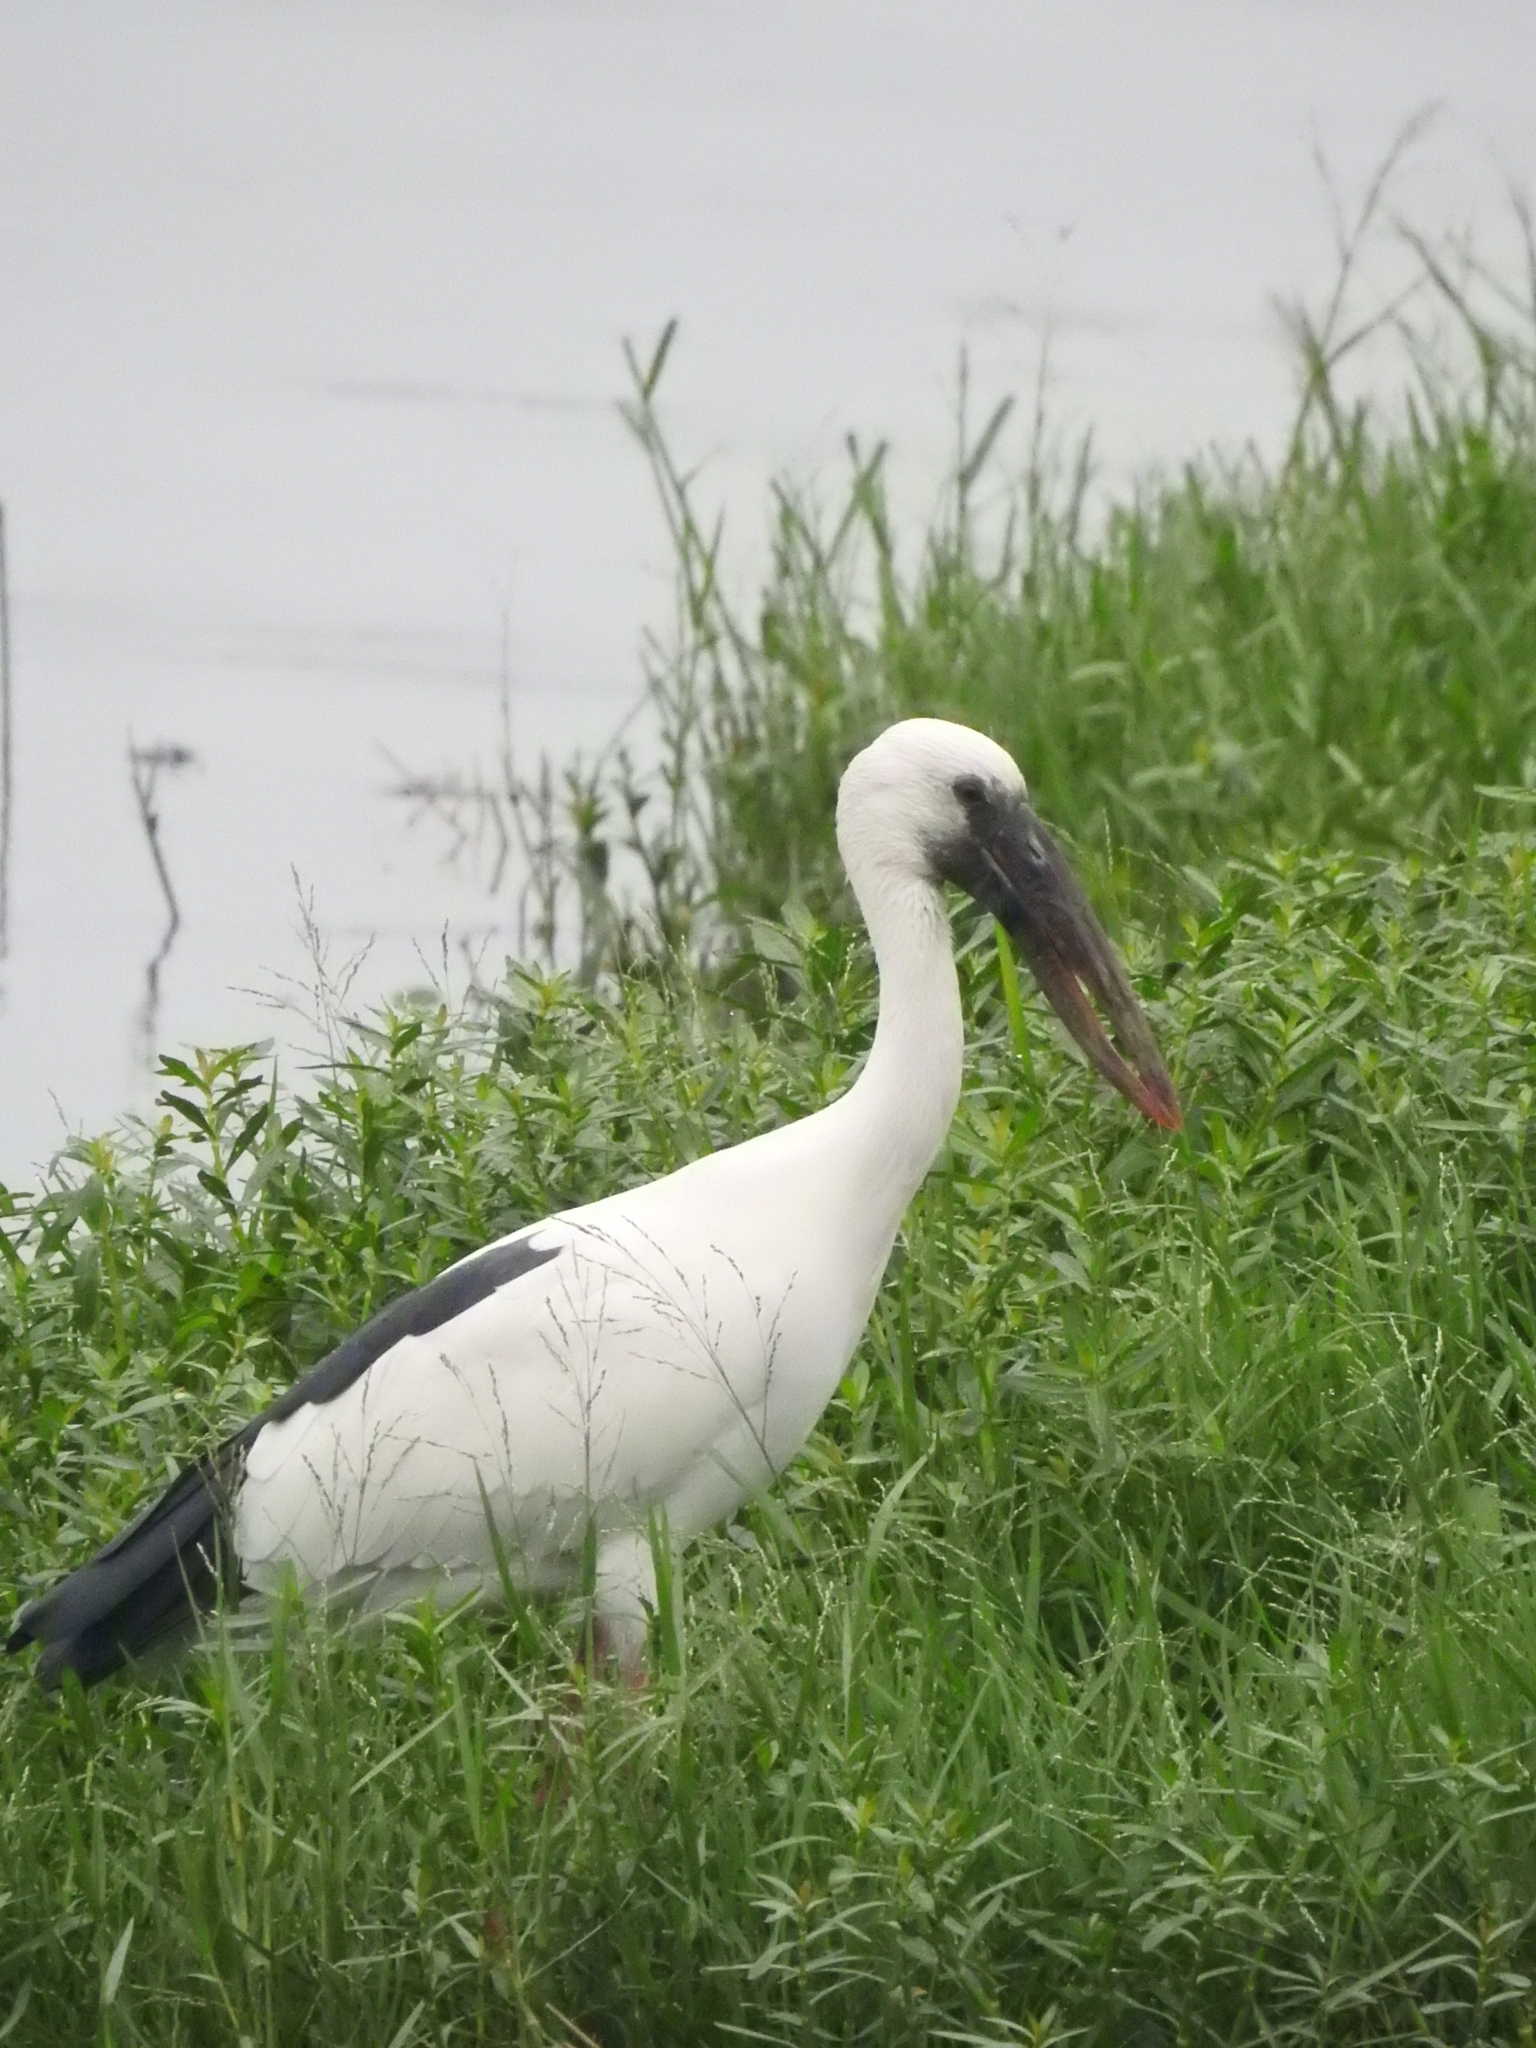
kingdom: Animalia
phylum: Chordata
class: Aves
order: Ciconiiformes
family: Ciconiidae
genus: Anastomus
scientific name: Anastomus oscitans
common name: Asian openbill
